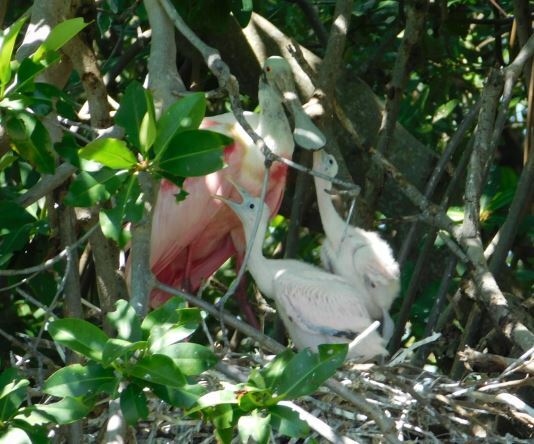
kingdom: Animalia
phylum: Chordata
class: Aves
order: Pelecaniformes
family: Threskiornithidae
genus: Platalea
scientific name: Platalea ajaja
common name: Roseate spoonbill
